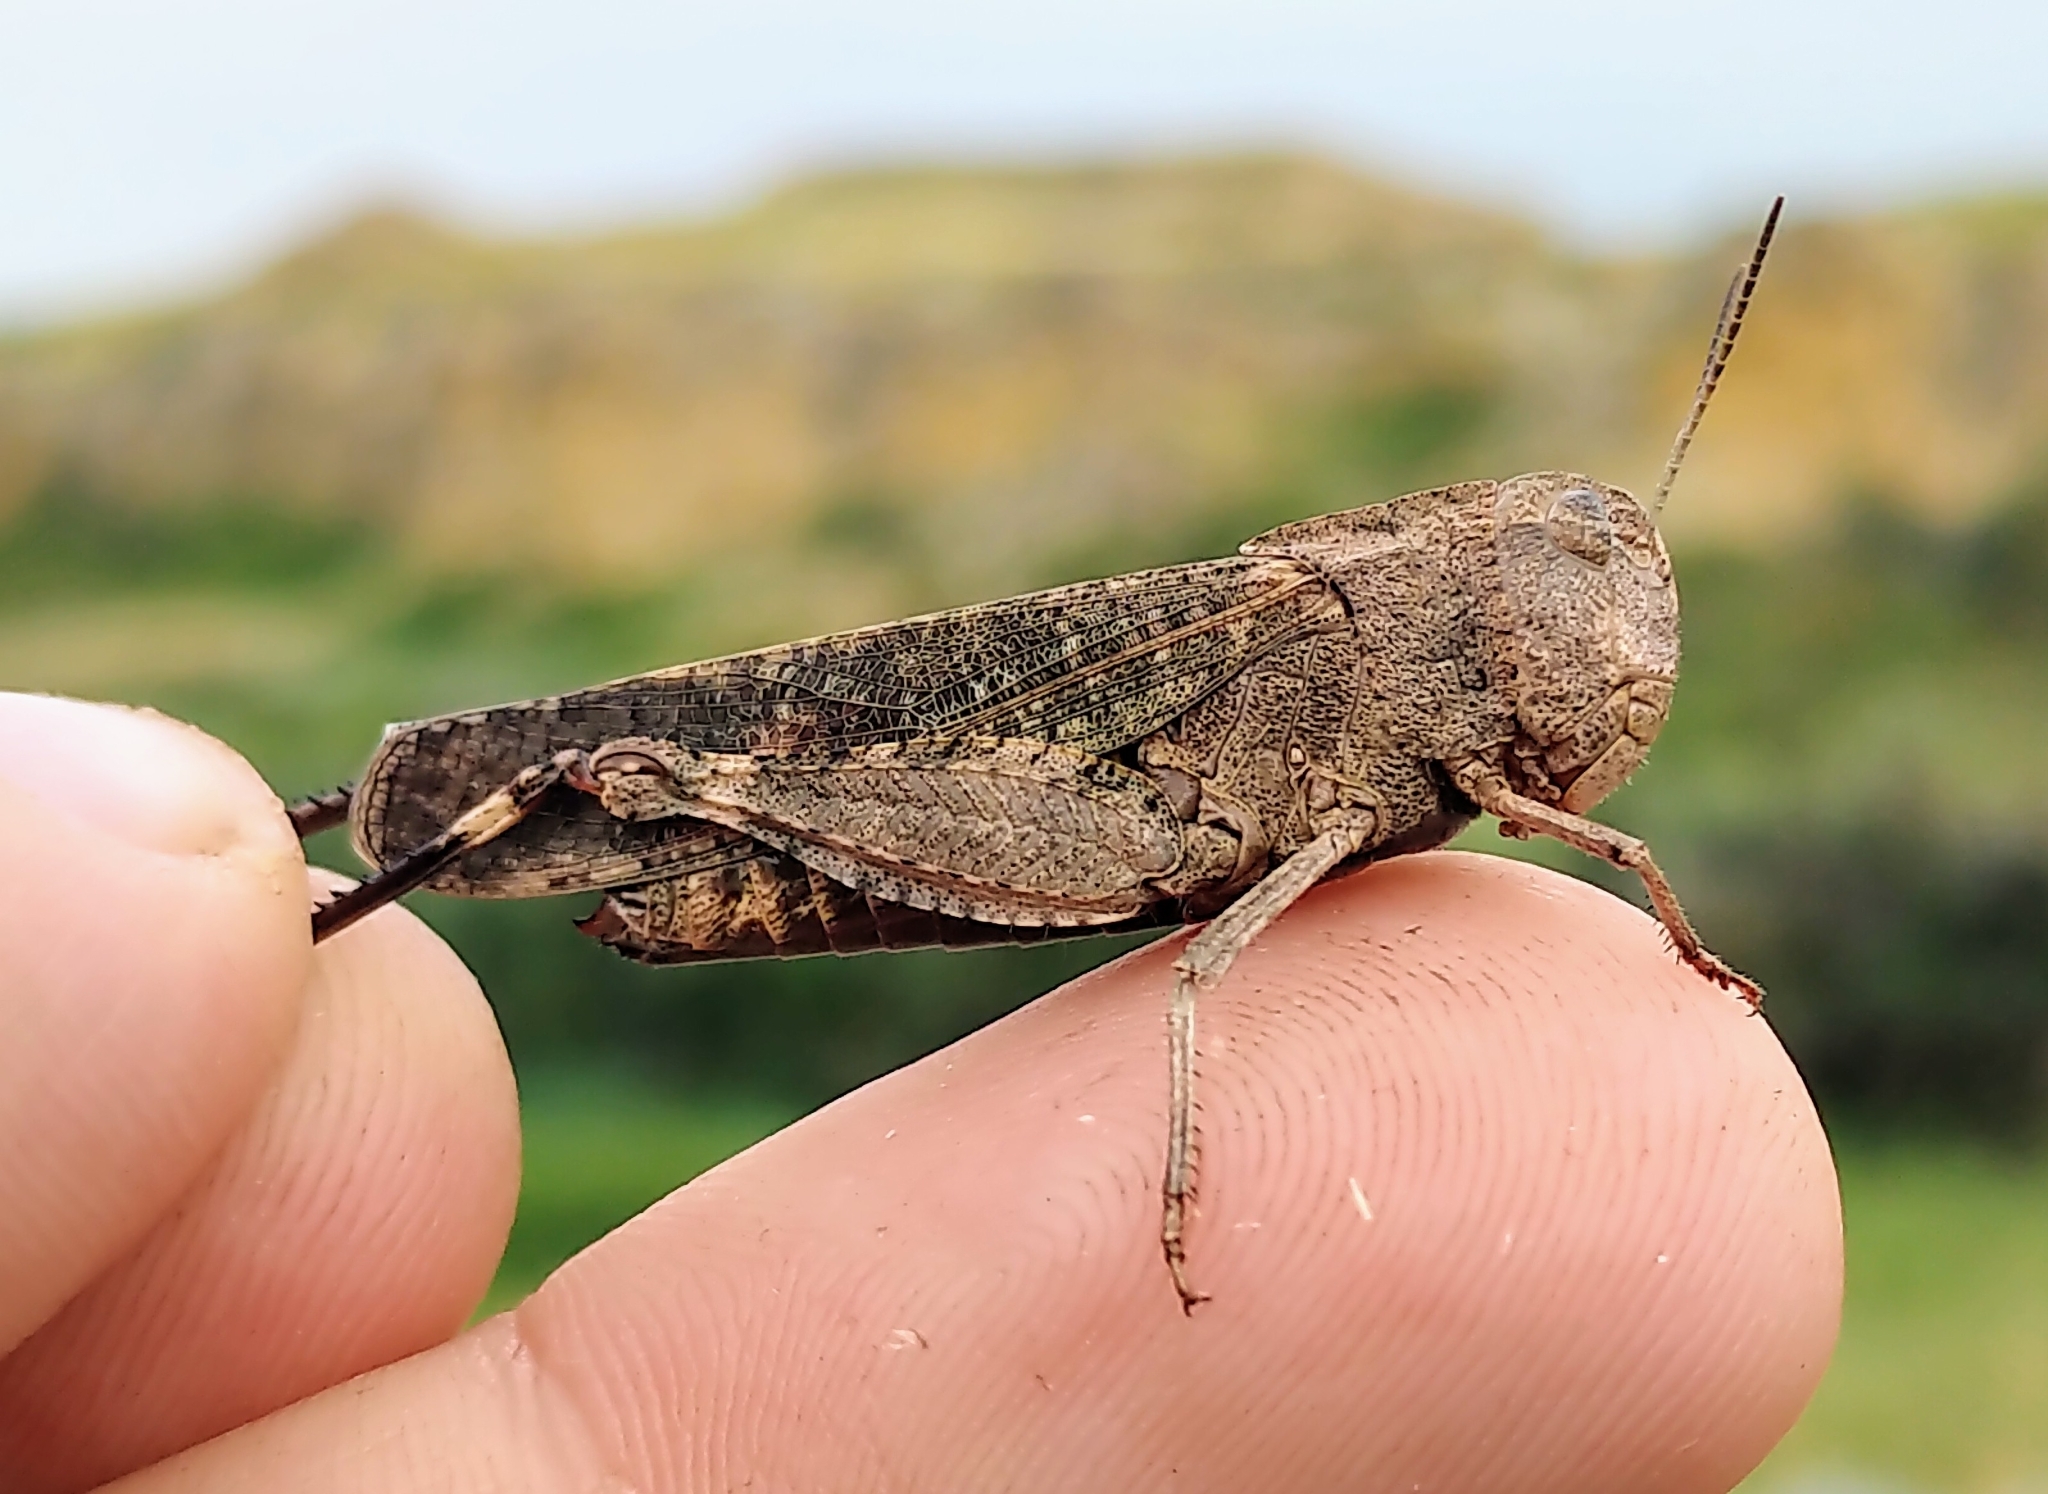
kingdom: Animalia
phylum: Arthropoda
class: Insecta
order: Orthoptera
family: Acrididae
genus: Arphia
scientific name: Arphia pseudo-nietana
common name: Red-winged grasshopper
